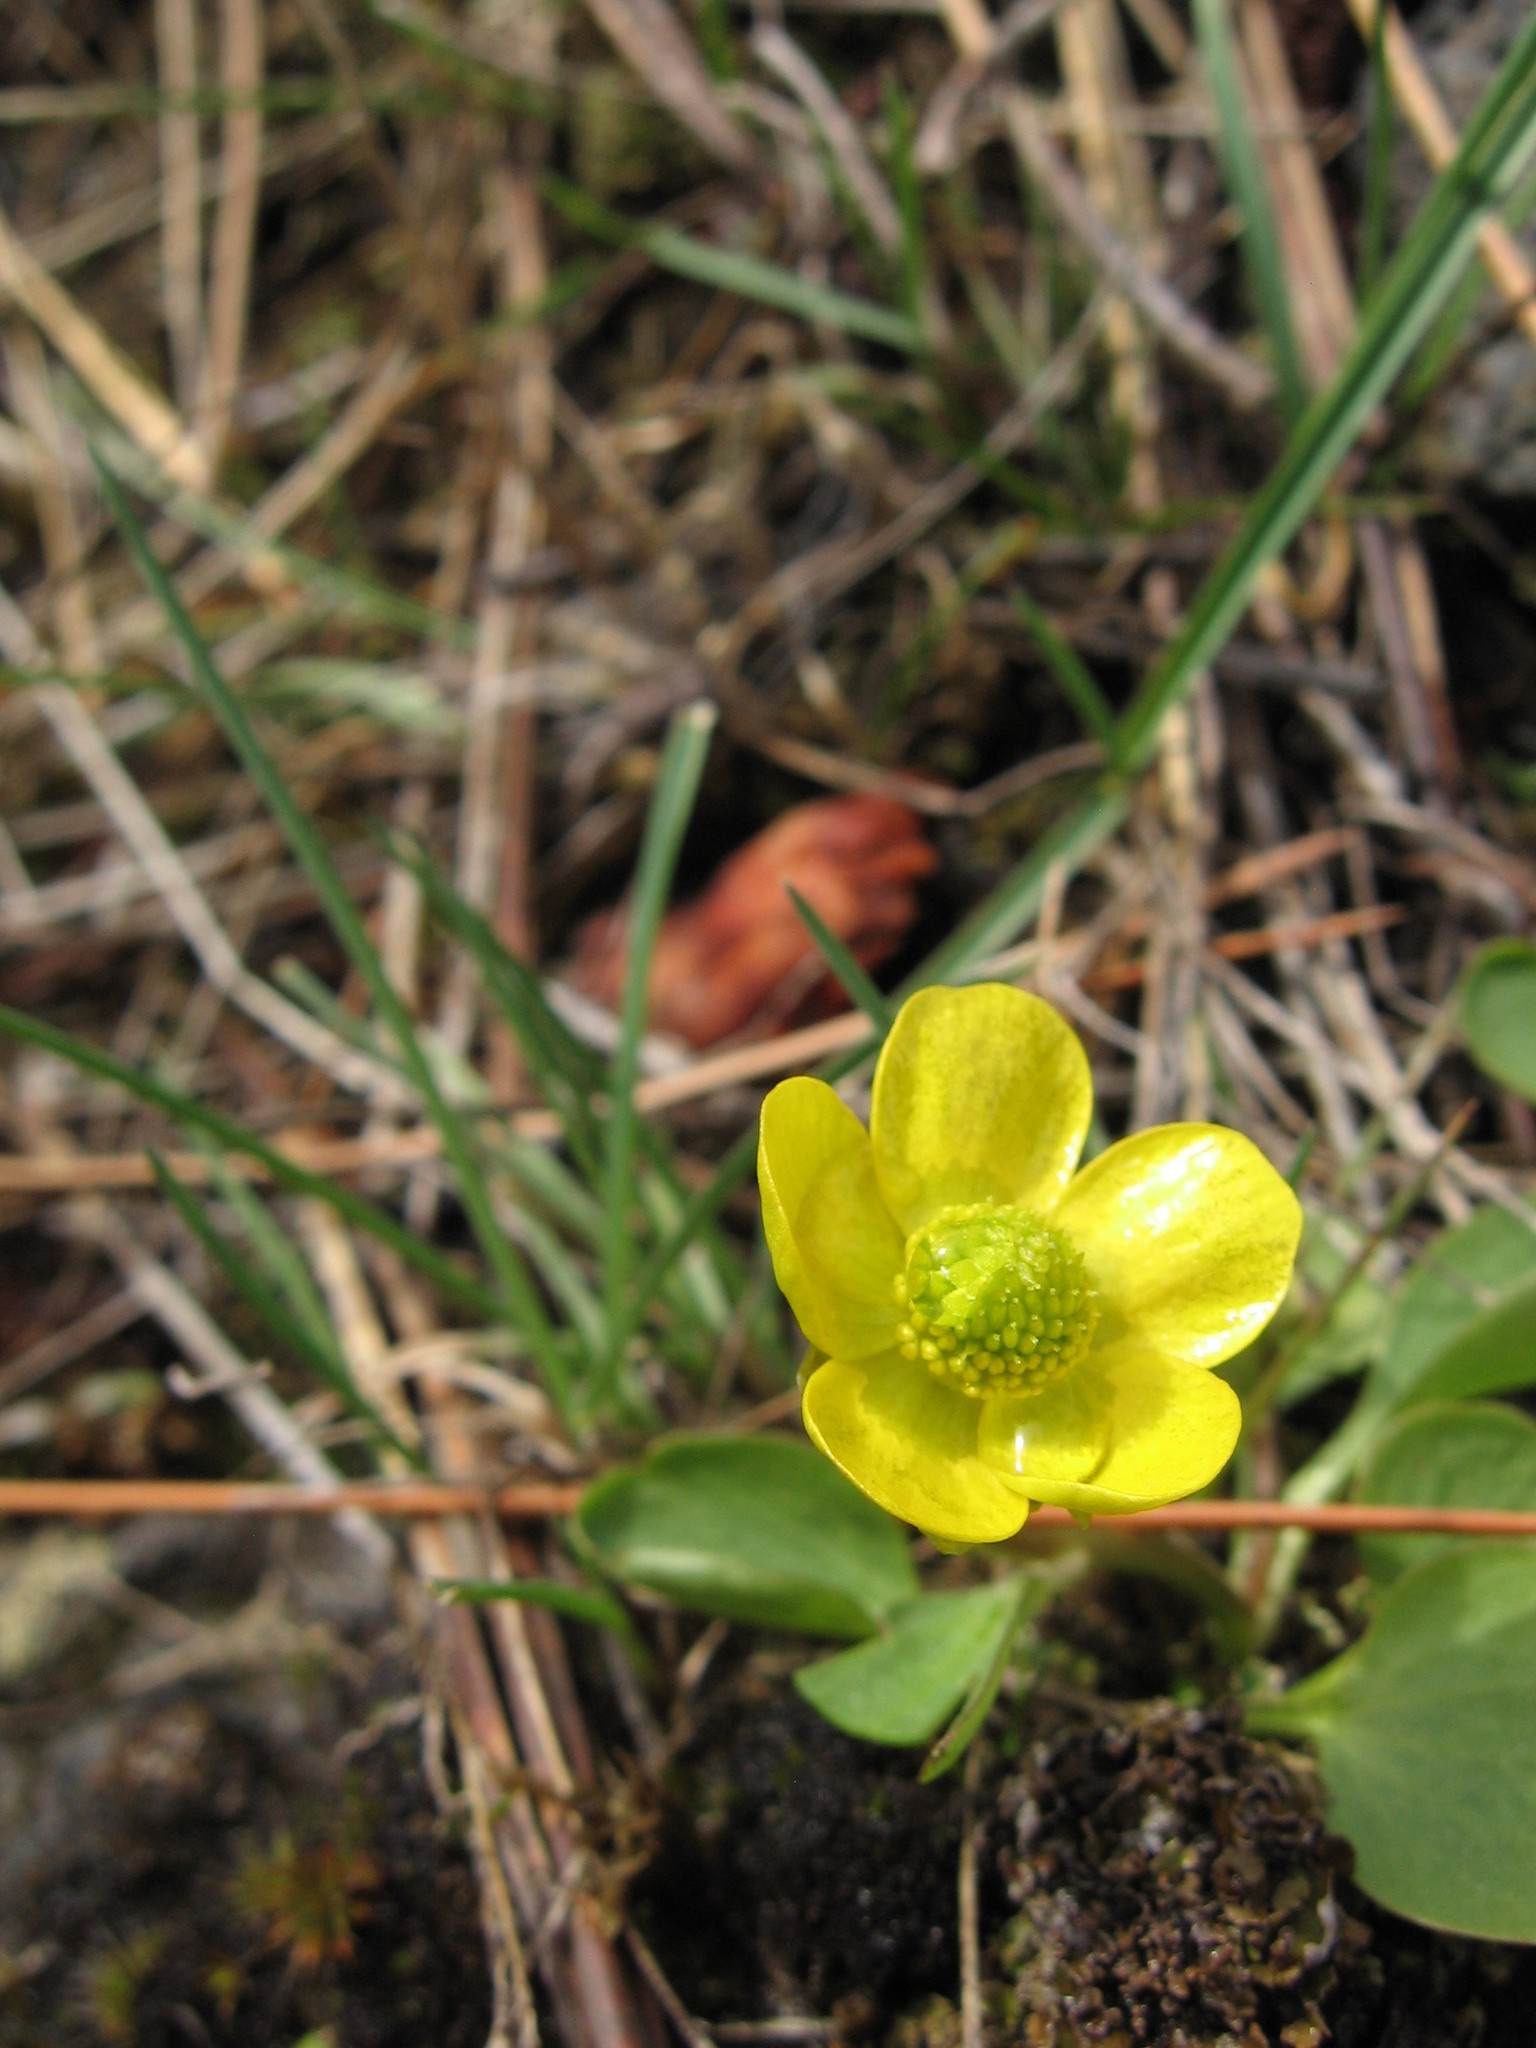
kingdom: Plantae
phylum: Tracheophyta
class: Magnoliopsida
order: Ranunculales
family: Ranunculaceae
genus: Ranunculus
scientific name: Ranunculus glaberrimus
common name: Sagebrush buttercup
